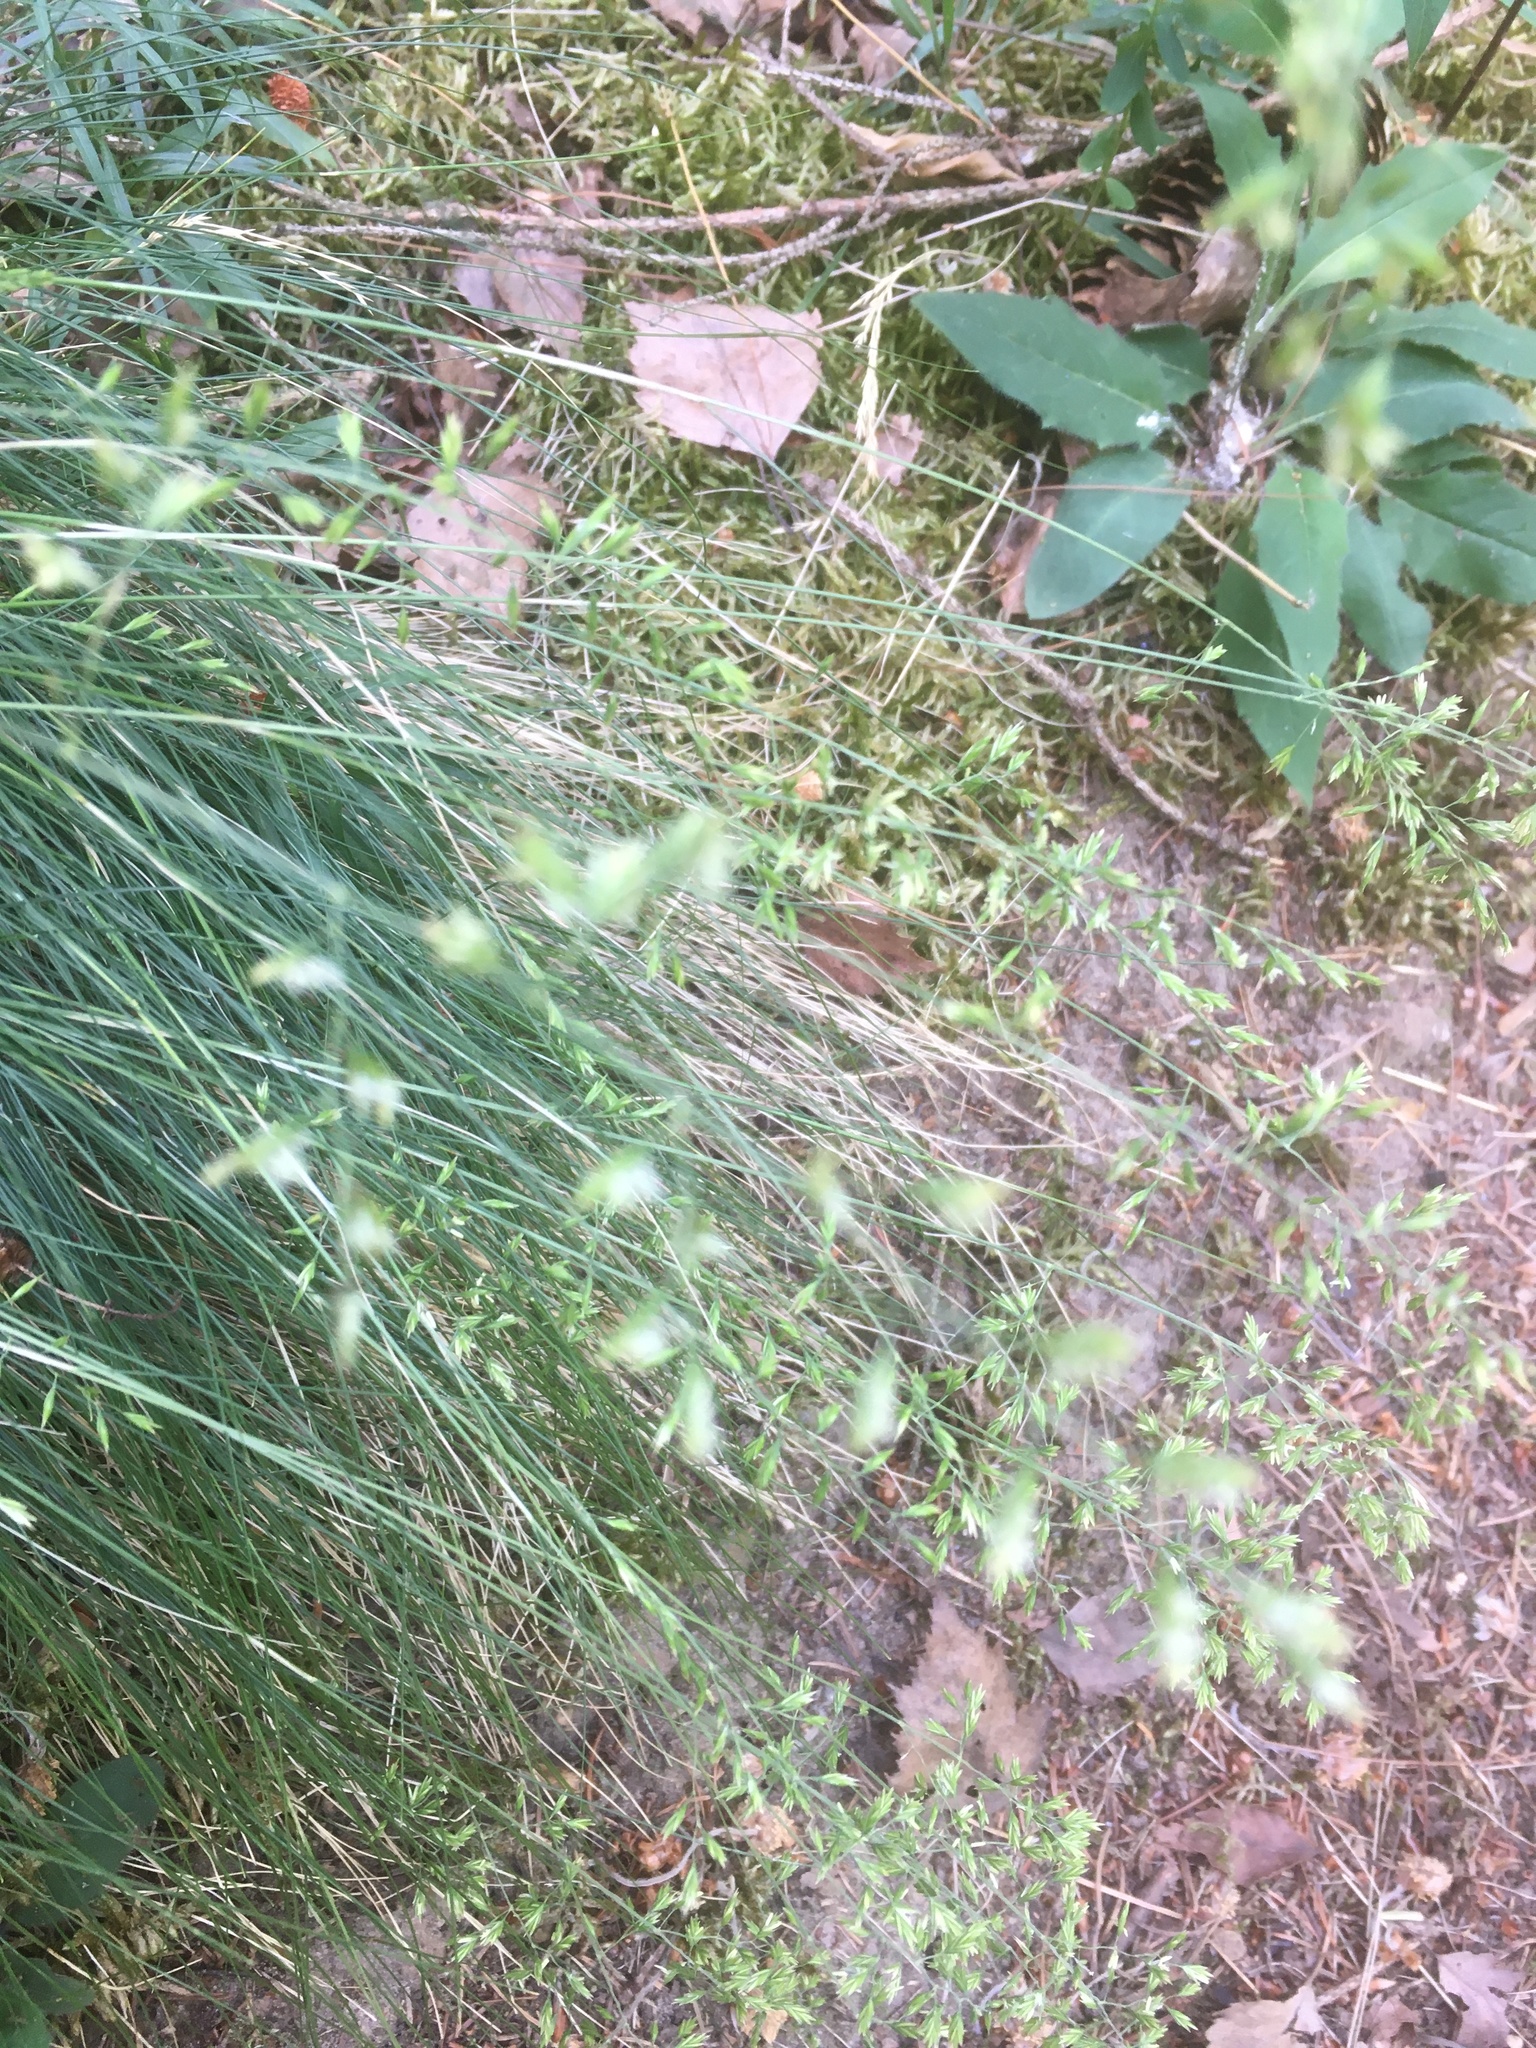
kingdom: Plantae
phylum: Tracheophyta
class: Liliopsida
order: Poales
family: Poaceae
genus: Avenella
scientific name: Avenella flexuosa
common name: Wavy hairgrass
